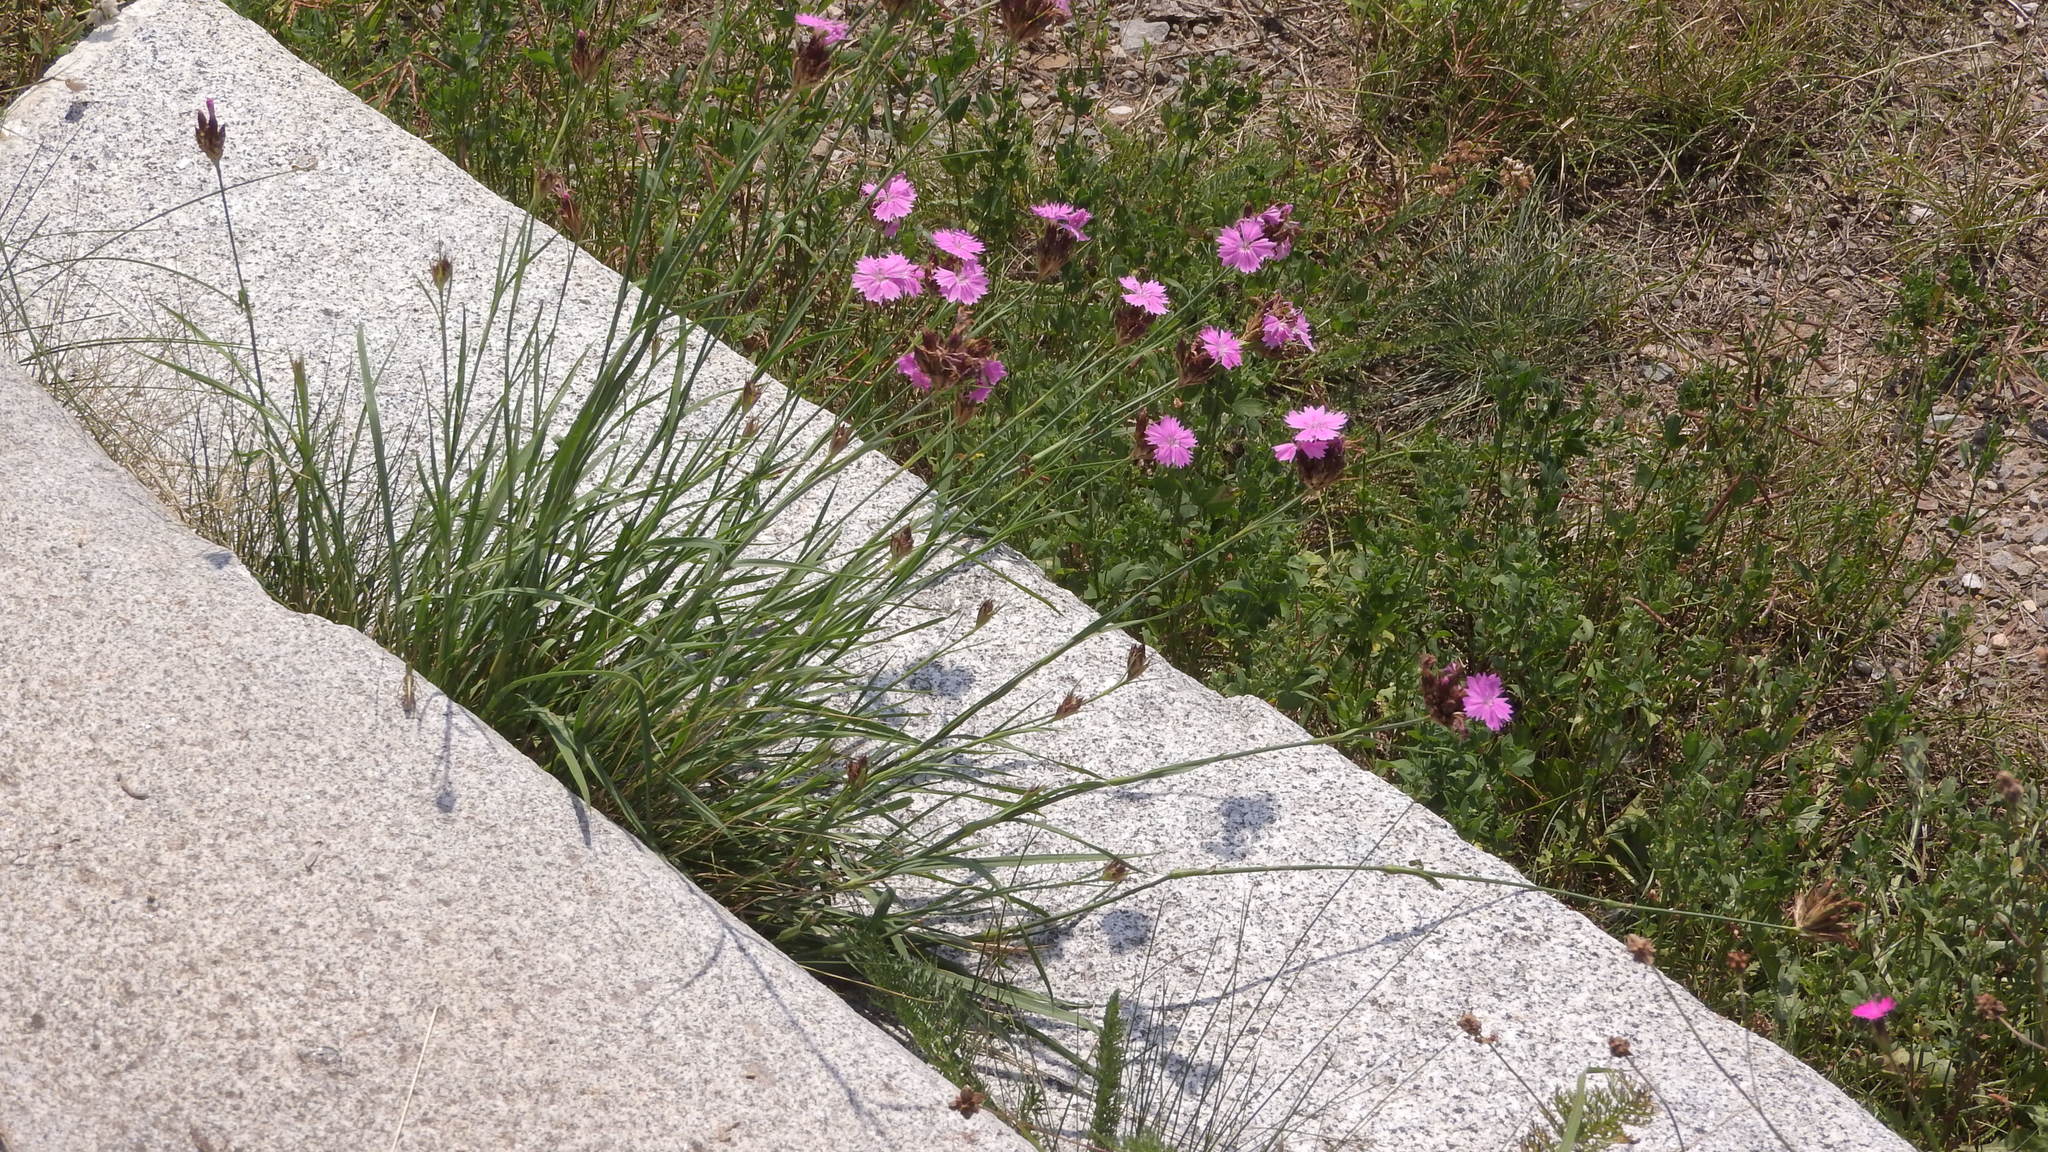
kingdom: Plantae
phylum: Tracheophyta
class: Magnoliopsida
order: Caryophyllales
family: Caryophyllaceae
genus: Dianthus
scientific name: Dianthus carthusianorum
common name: Carthusian pink
